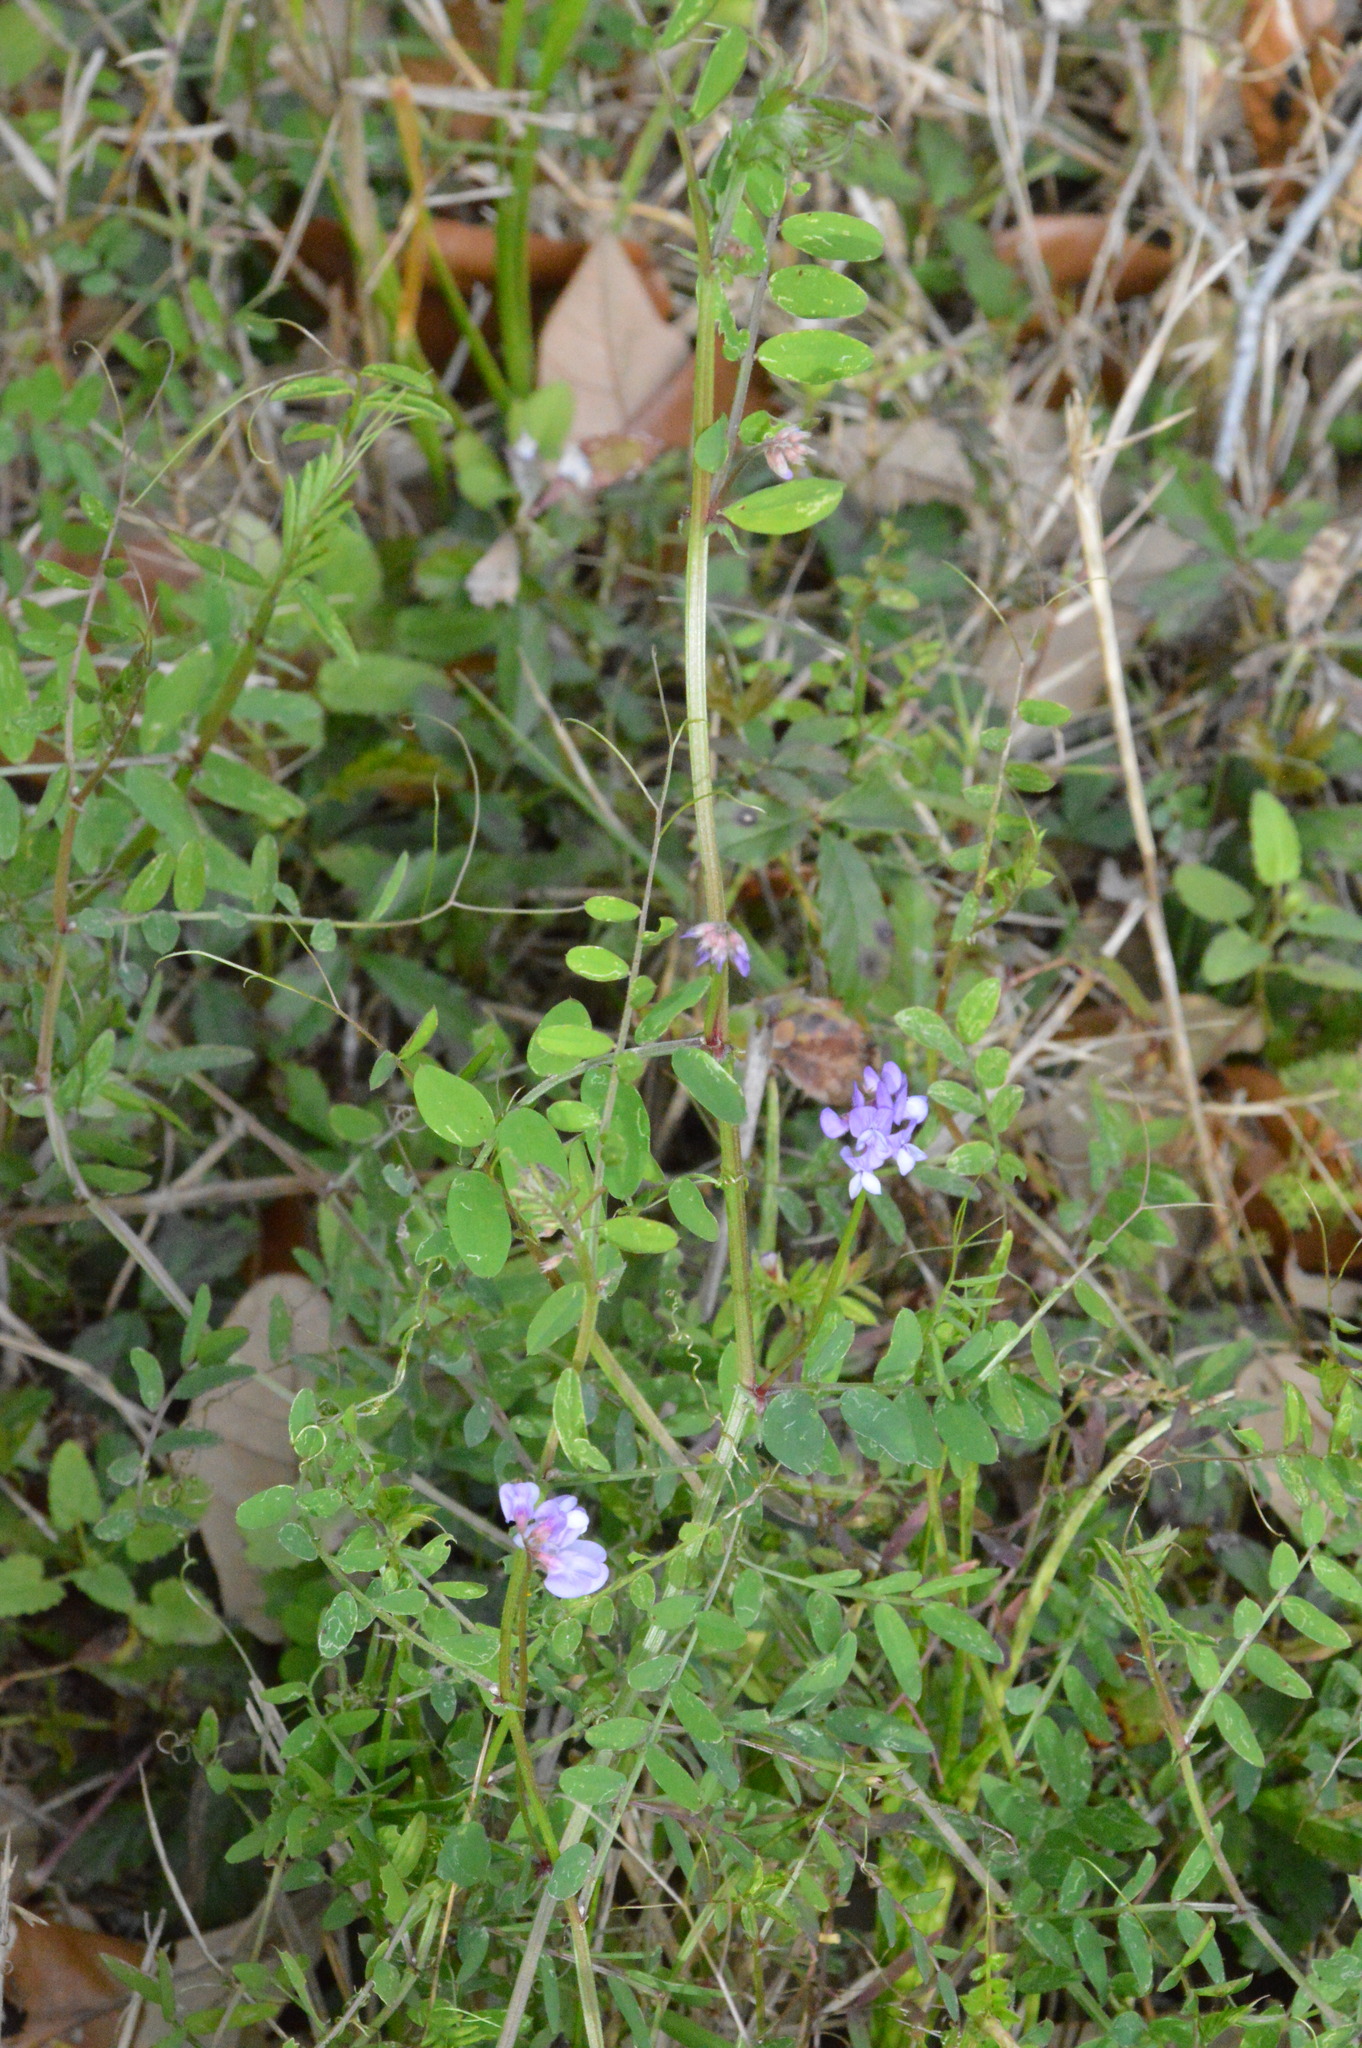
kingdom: Plantae
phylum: Tracheophyta
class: Magnoliopsida
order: Fabales
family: Fabaceae
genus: Vicia
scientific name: Vicia ludoviciana
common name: Louisiana vetch
